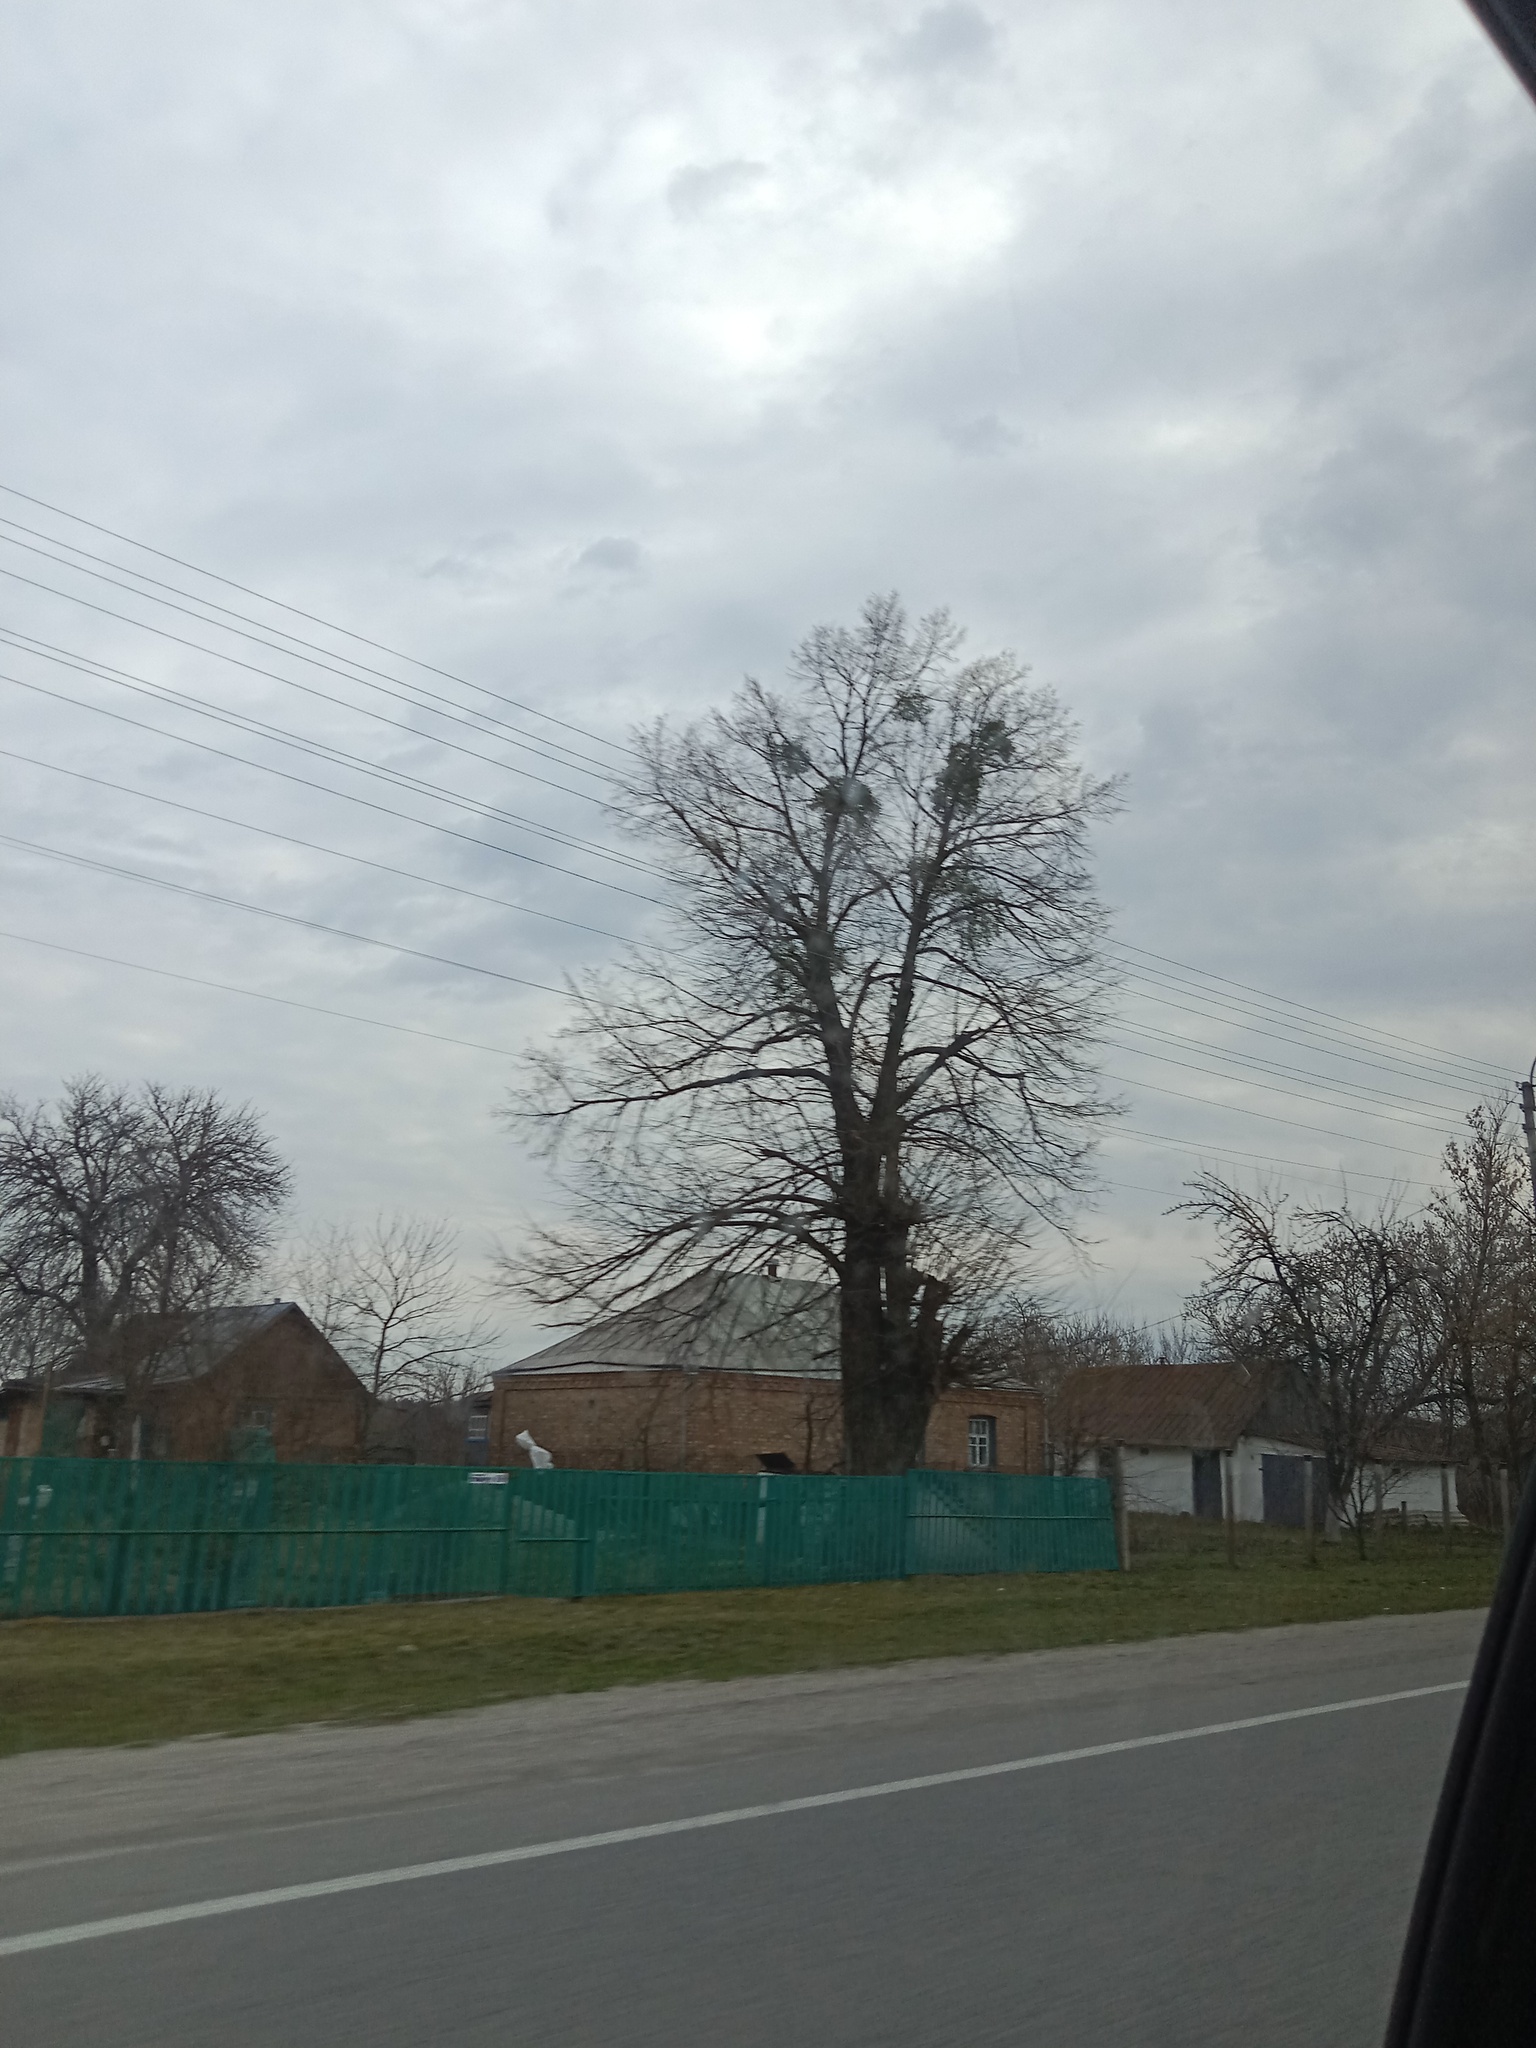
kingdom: Plantae
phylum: Tracheophyta
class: Magnoliopsida
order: Santalales
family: Viscaceae
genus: Viscum
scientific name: Viscum album
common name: Mistletoe
